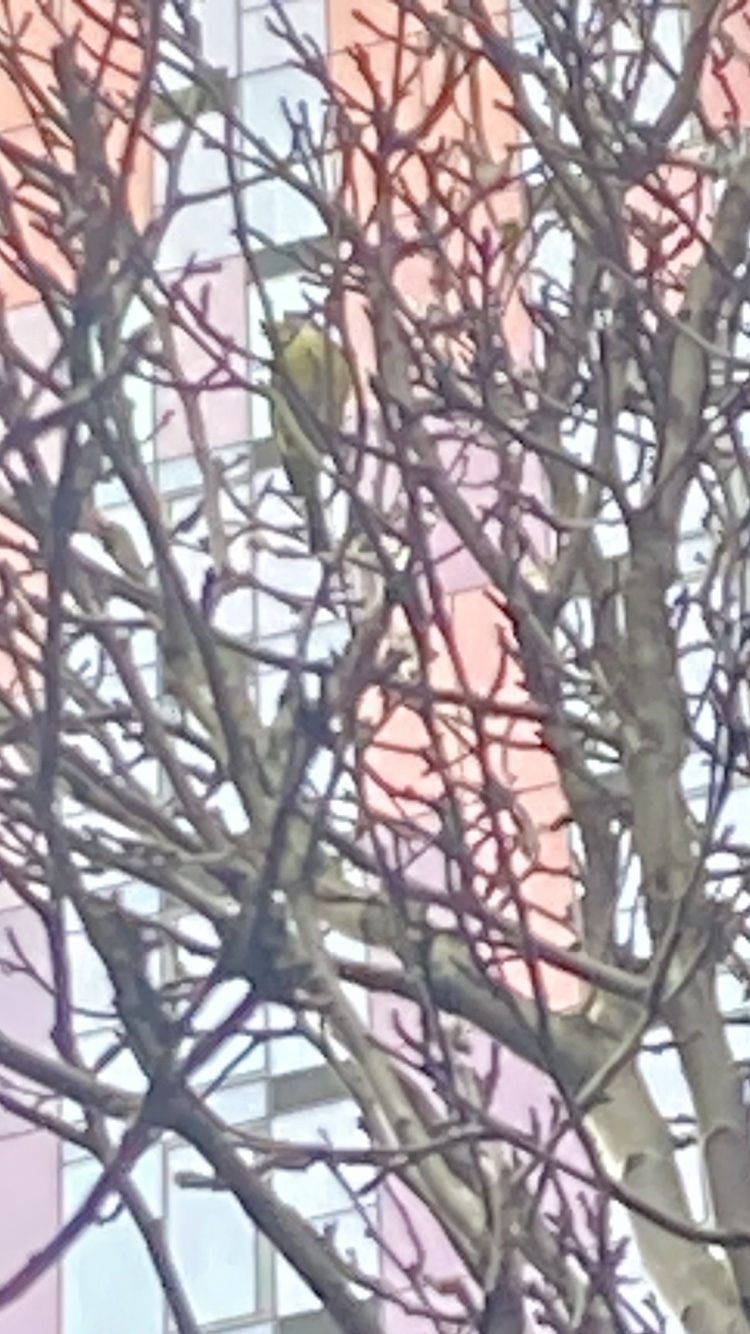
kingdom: Animalia
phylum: Chordata
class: Aves
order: Passeriformes
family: Paridae
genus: Cyanistes
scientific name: Cyanistes caeruleus
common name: Eurasian blue tit
